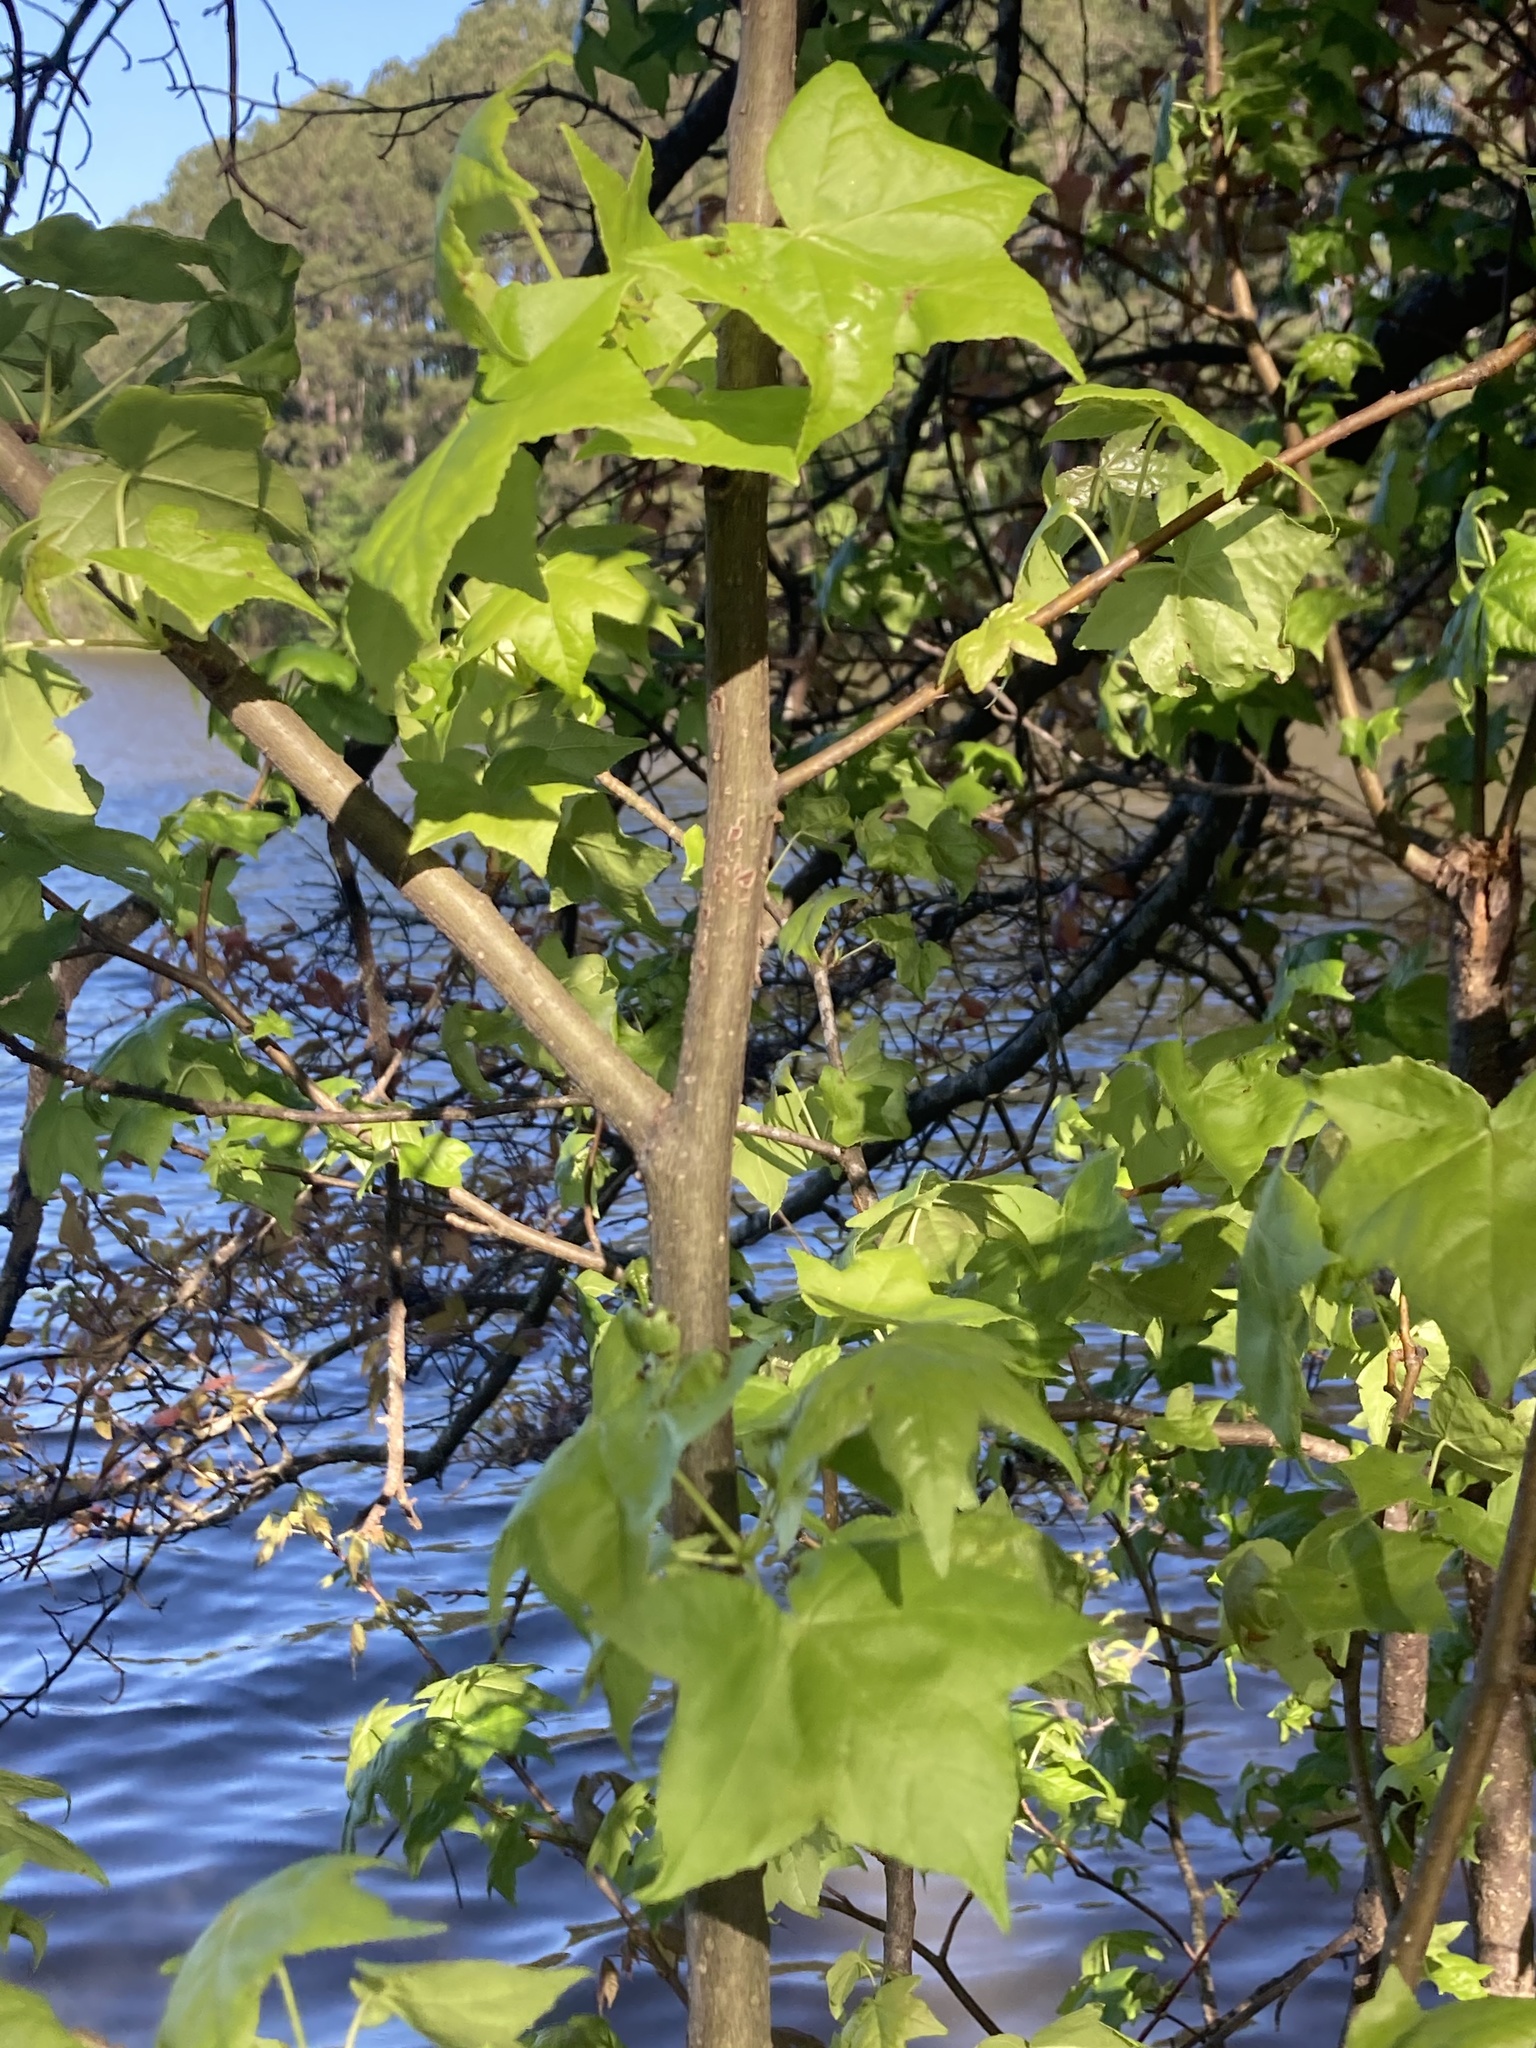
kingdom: Plantae
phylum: Tracheophyta
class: Magnoliopsida
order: Saxifragales
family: Altingiaceae
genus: Liquidambar
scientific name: Liquidambar styraciflua
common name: Sweet gum
